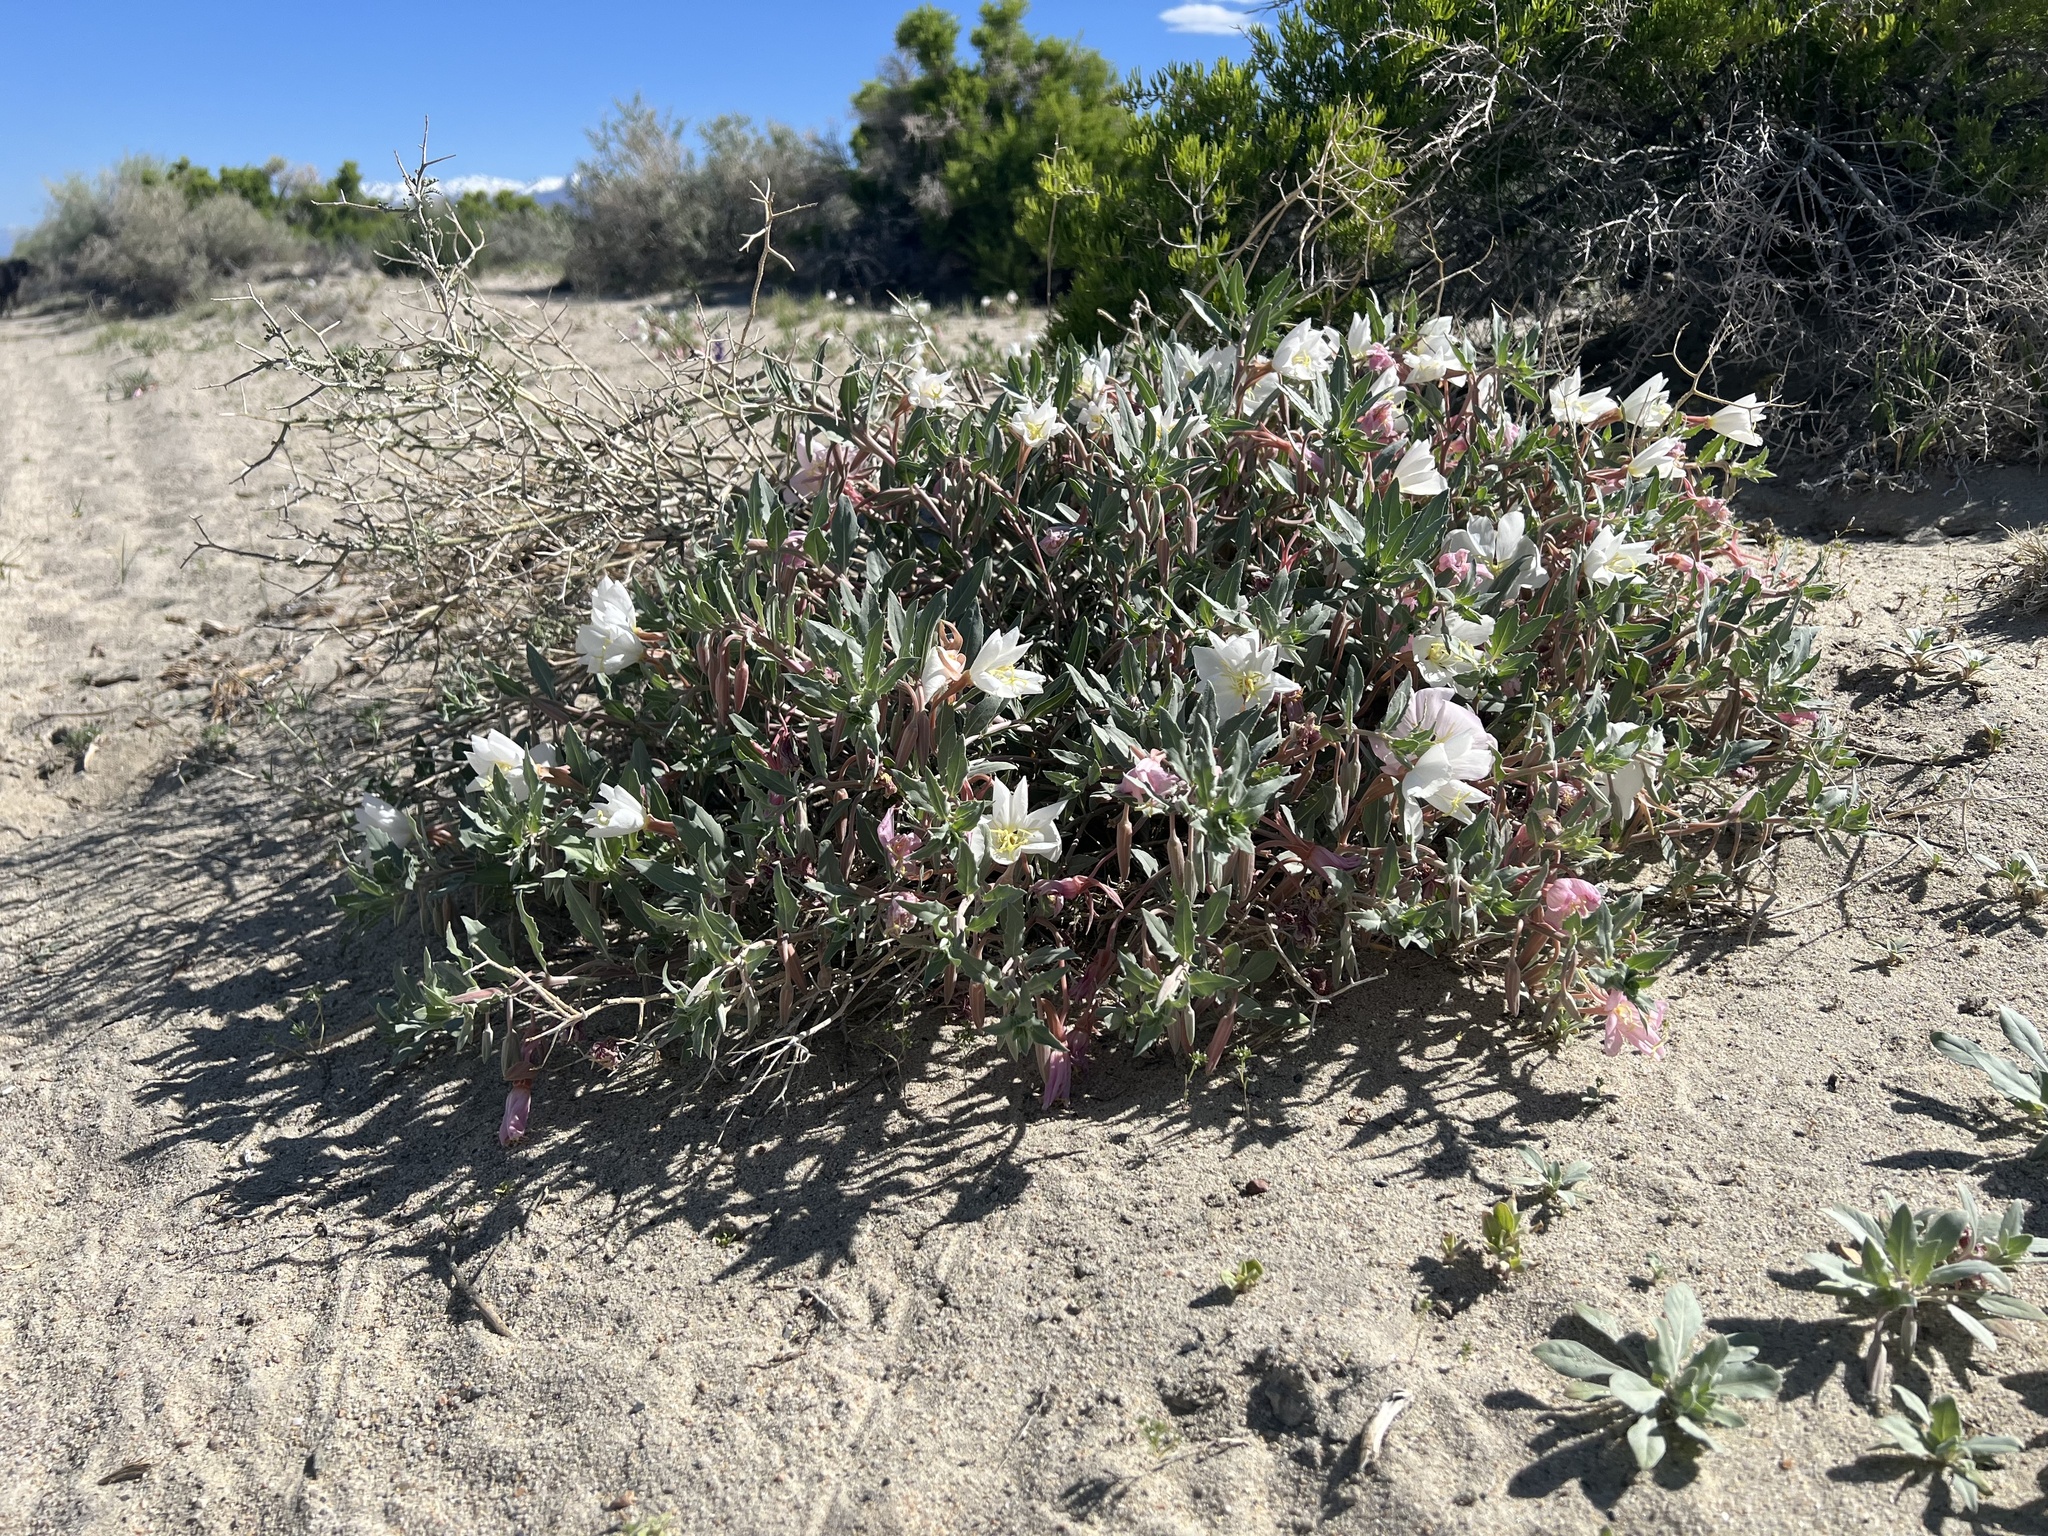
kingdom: Plantae
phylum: Tracheophyta
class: Magnoliopsida
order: Myrtales
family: Onagraceae
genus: Oenothera
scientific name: Oenothera avita
